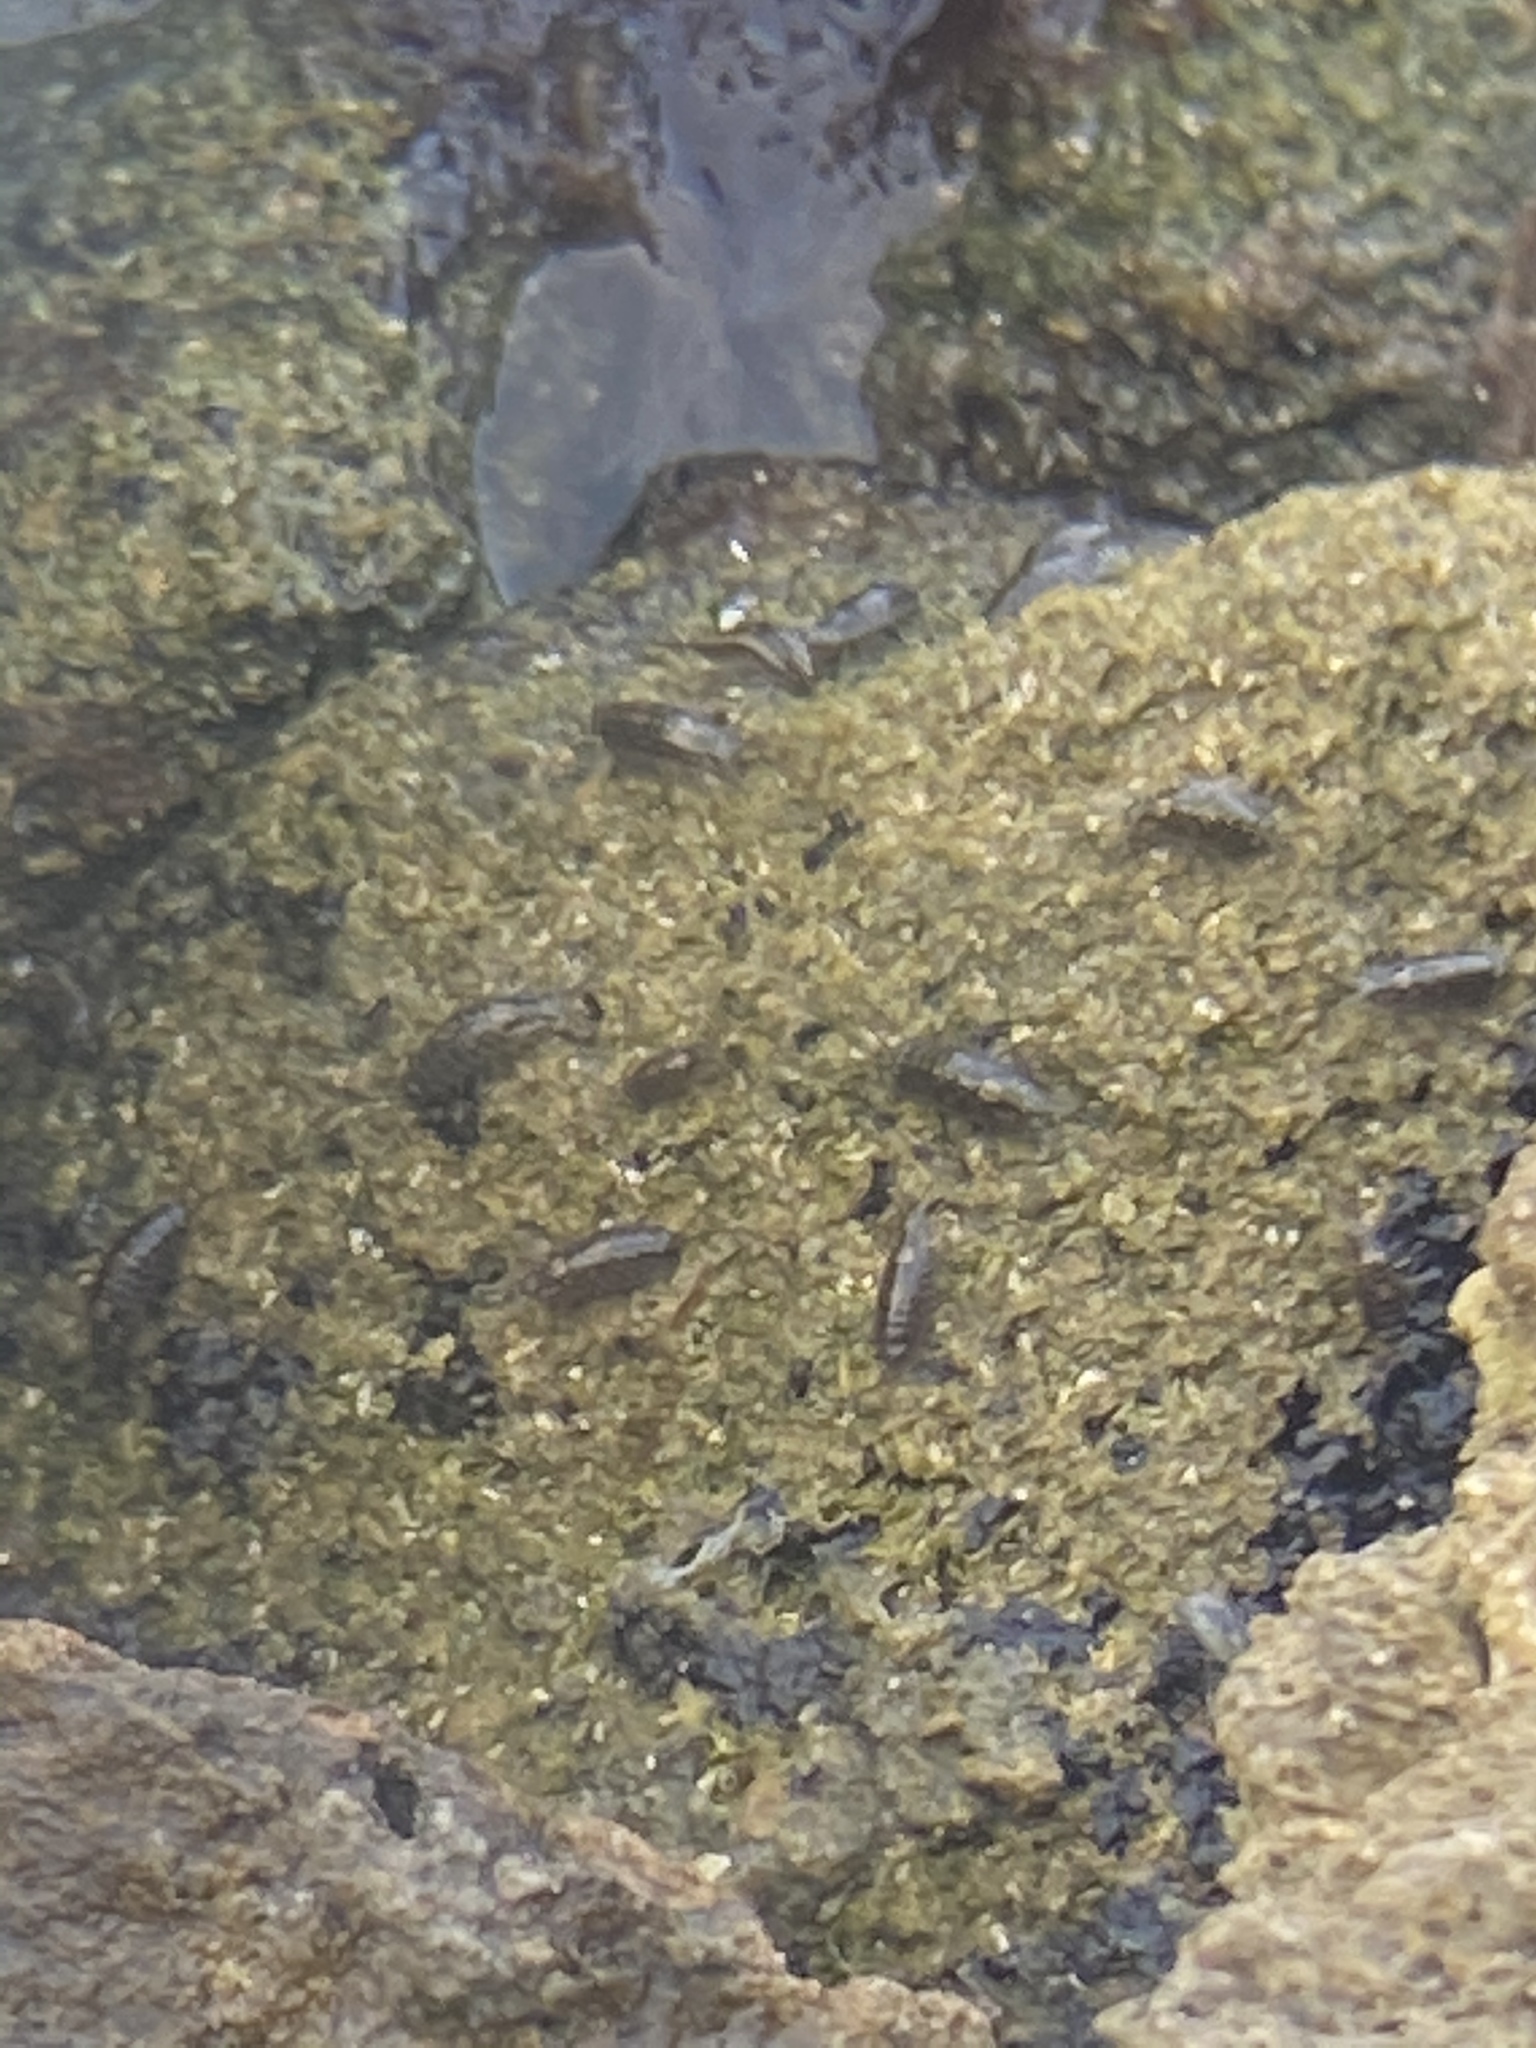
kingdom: Animalia
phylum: Arthropoda
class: Malacostraca
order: Isopoda
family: Ligiidae
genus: Ligia
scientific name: Ligia exotica
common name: Wharf roach
